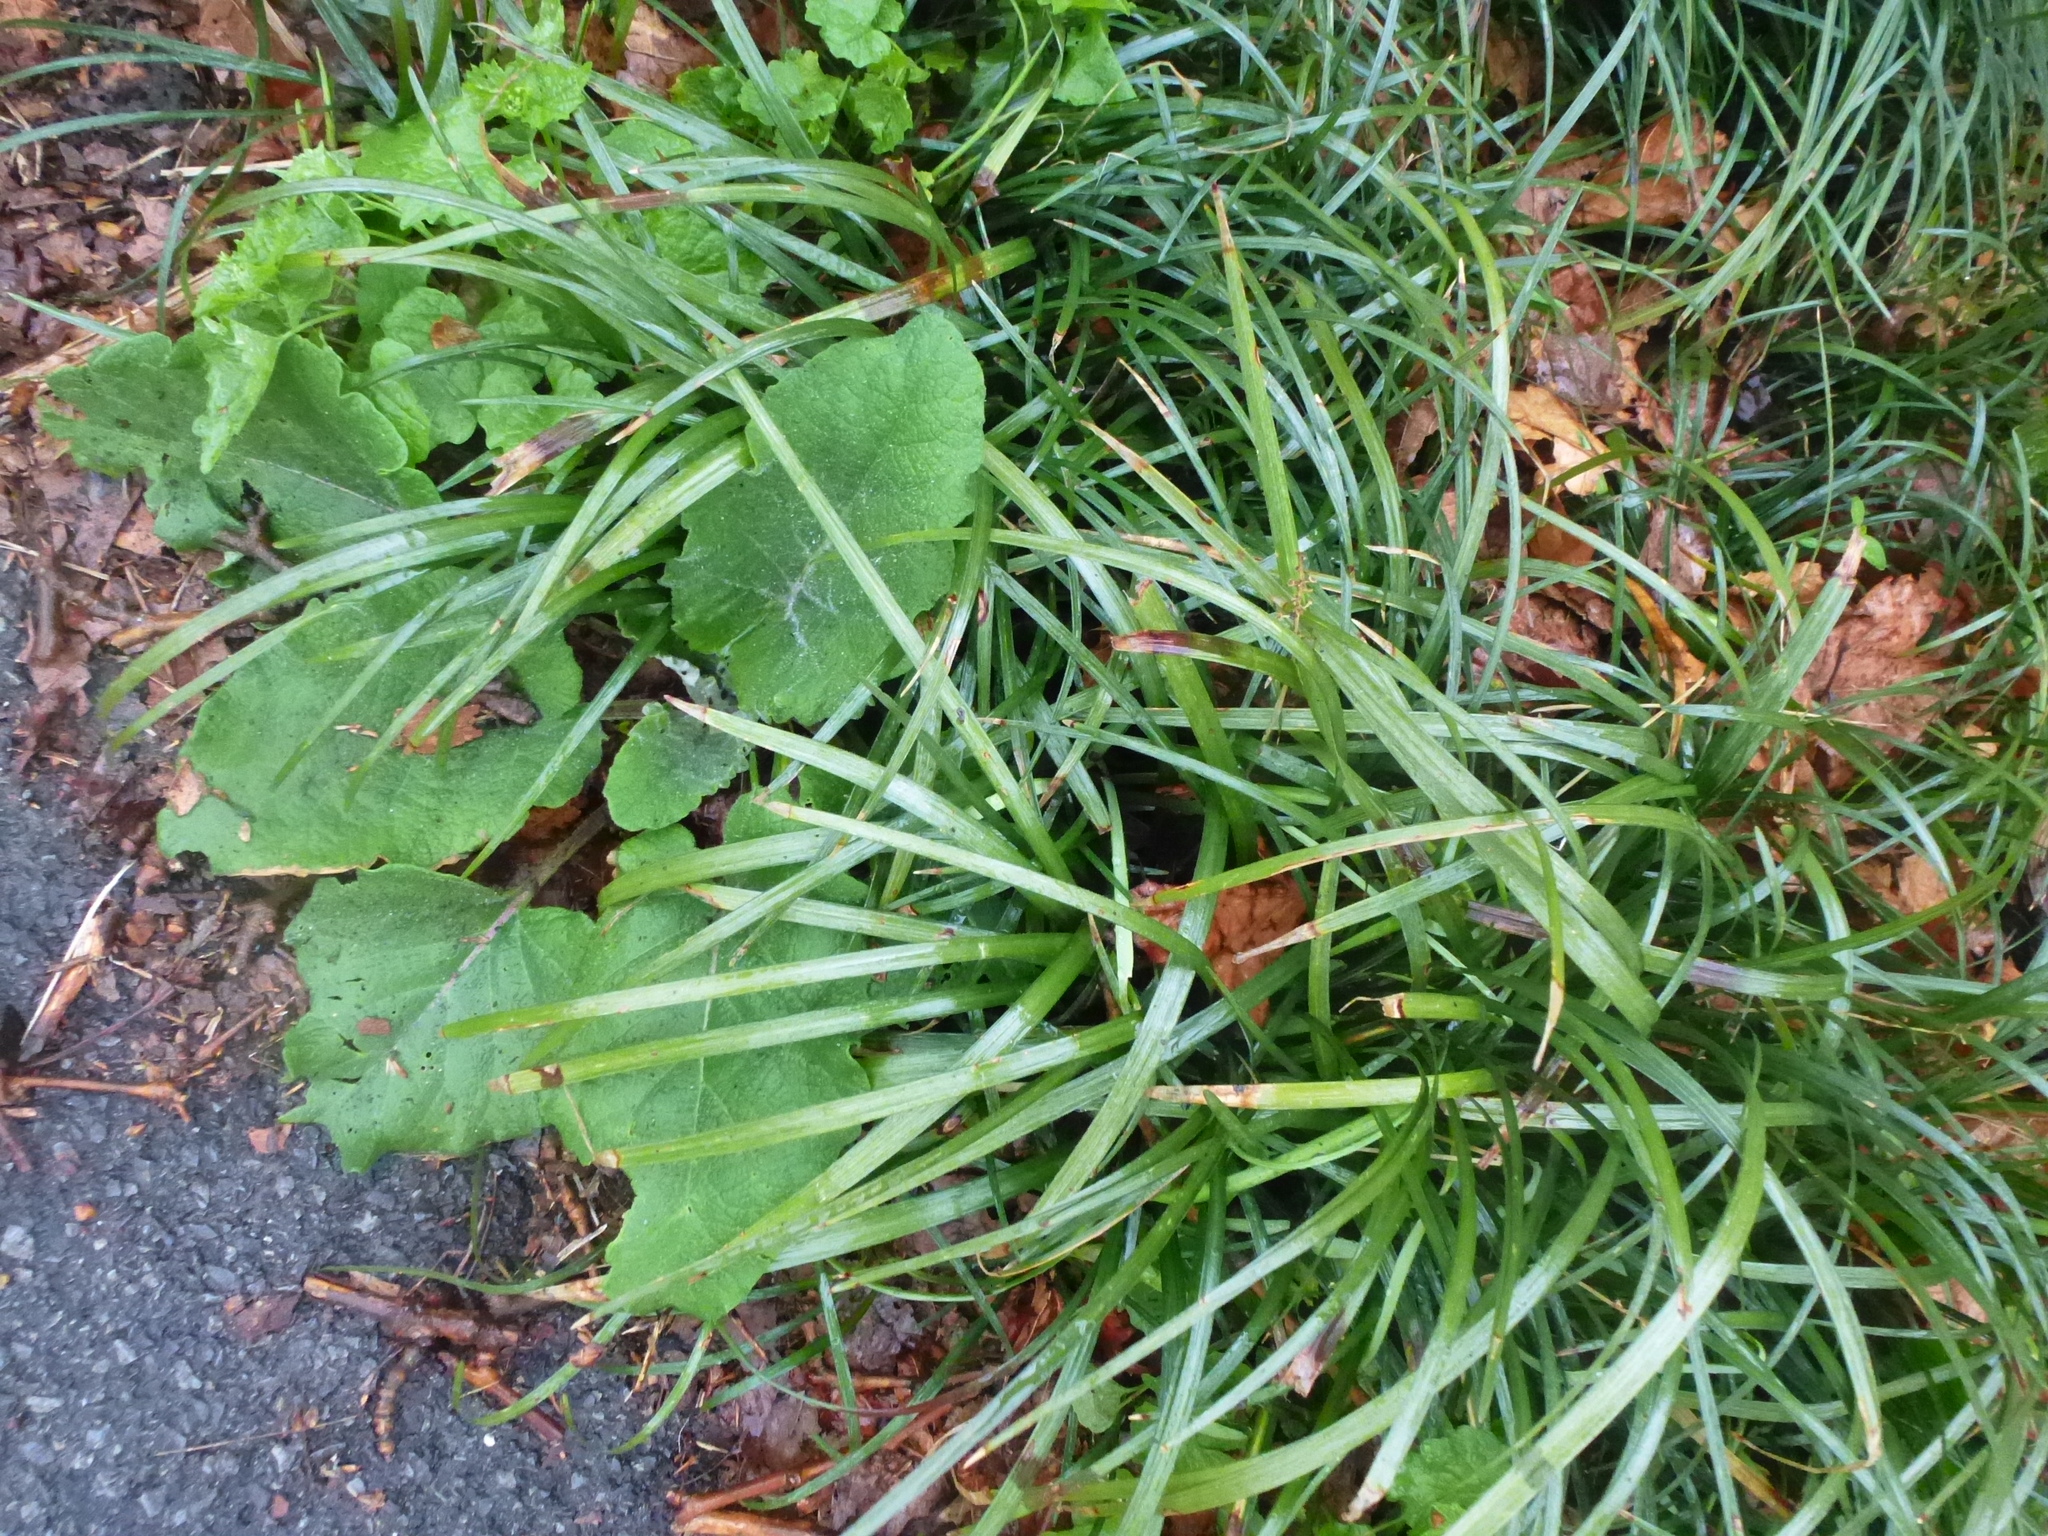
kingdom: Plantae
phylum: Tracheophyta
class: Magnoliopsida
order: Asterales
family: Asteraceae
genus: Arctium
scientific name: Arctium
